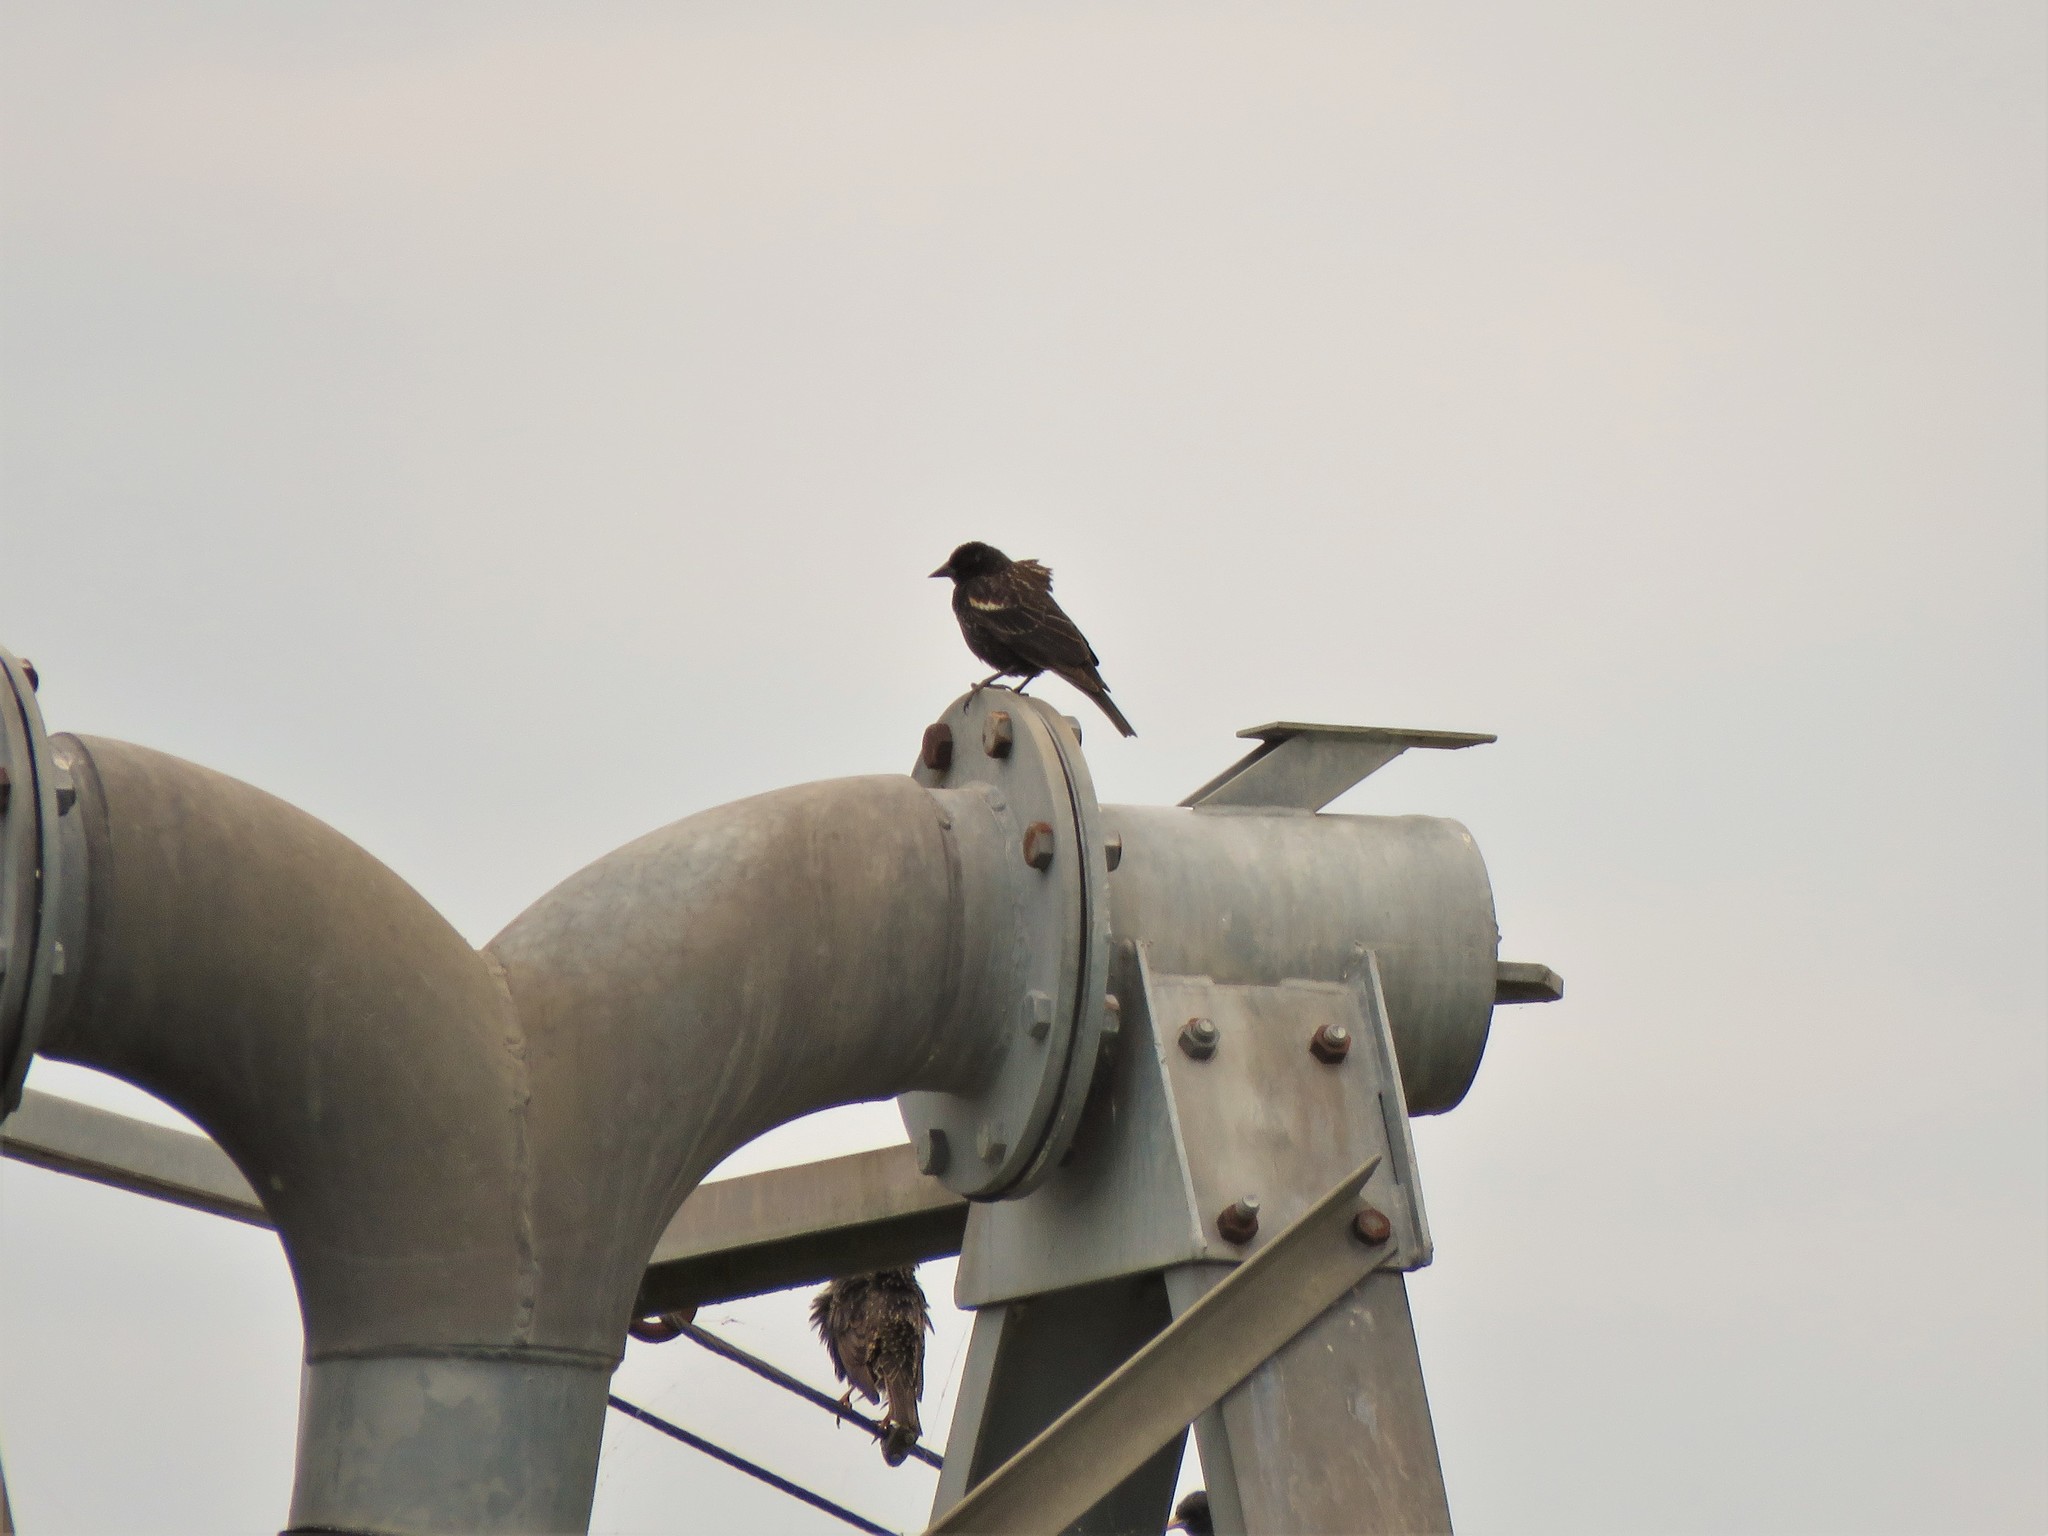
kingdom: Animalia
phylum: Chordata
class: Aves
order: Passeriformes
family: Icteridae
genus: Agelaius
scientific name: Agelaius phoeniceus
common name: Red-winged blackbird
